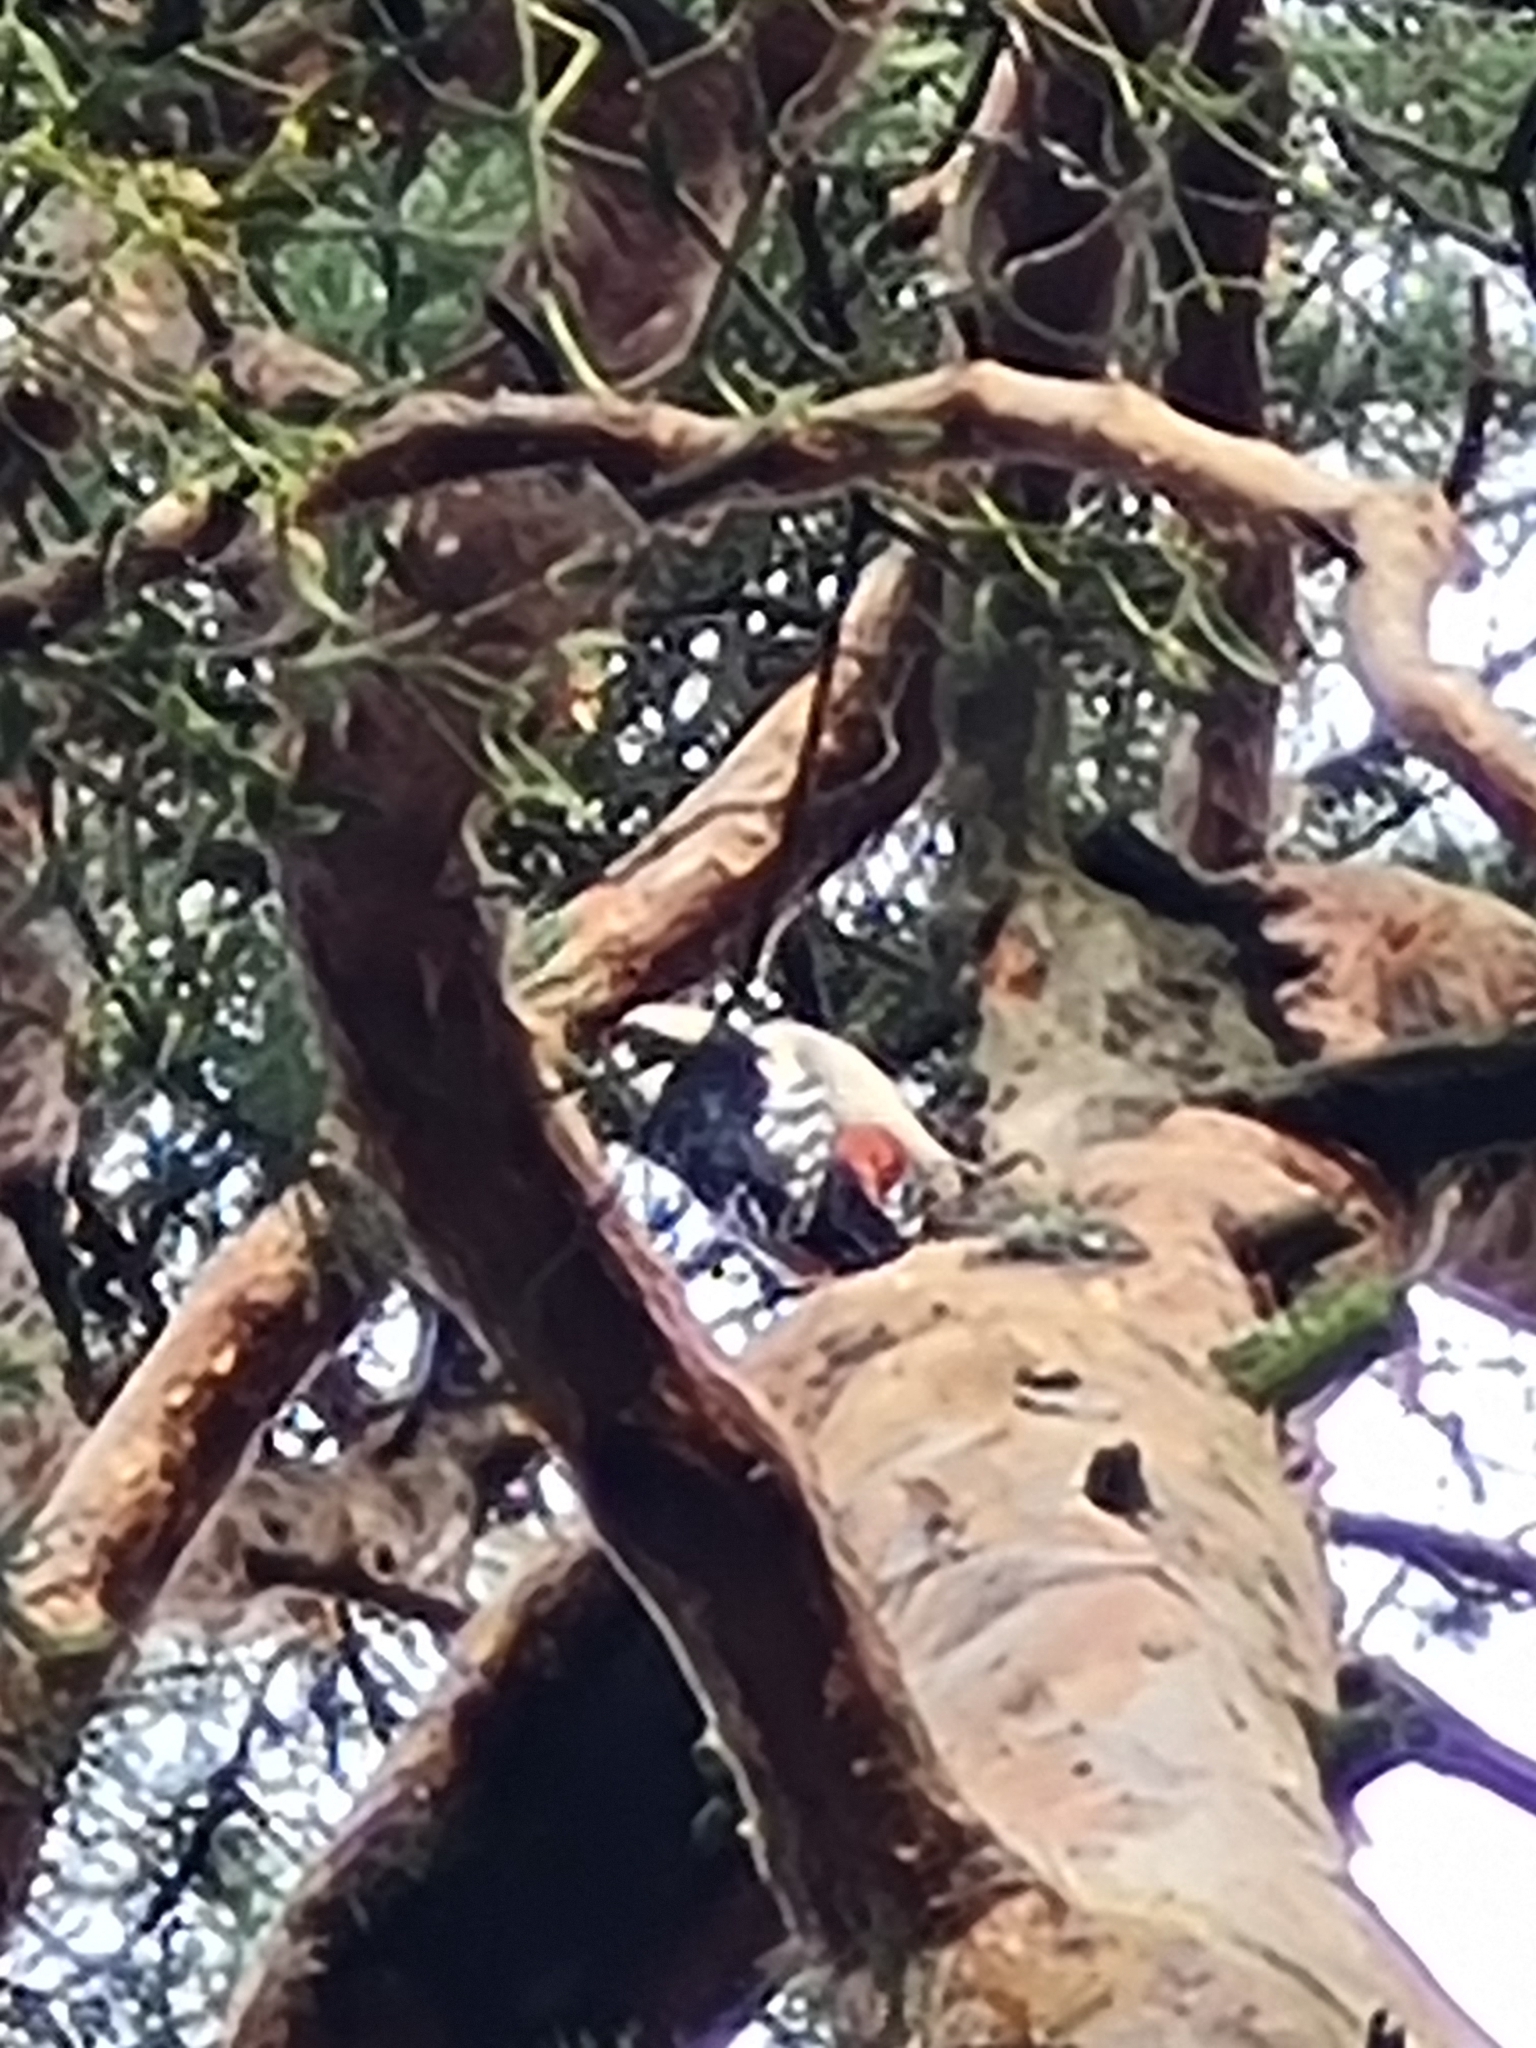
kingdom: Animalia
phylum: Chordata
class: Aves
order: Piciformes
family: Picidae
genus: Dendrocopos
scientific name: Dendrocopos major
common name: Great spotted woodpecker
